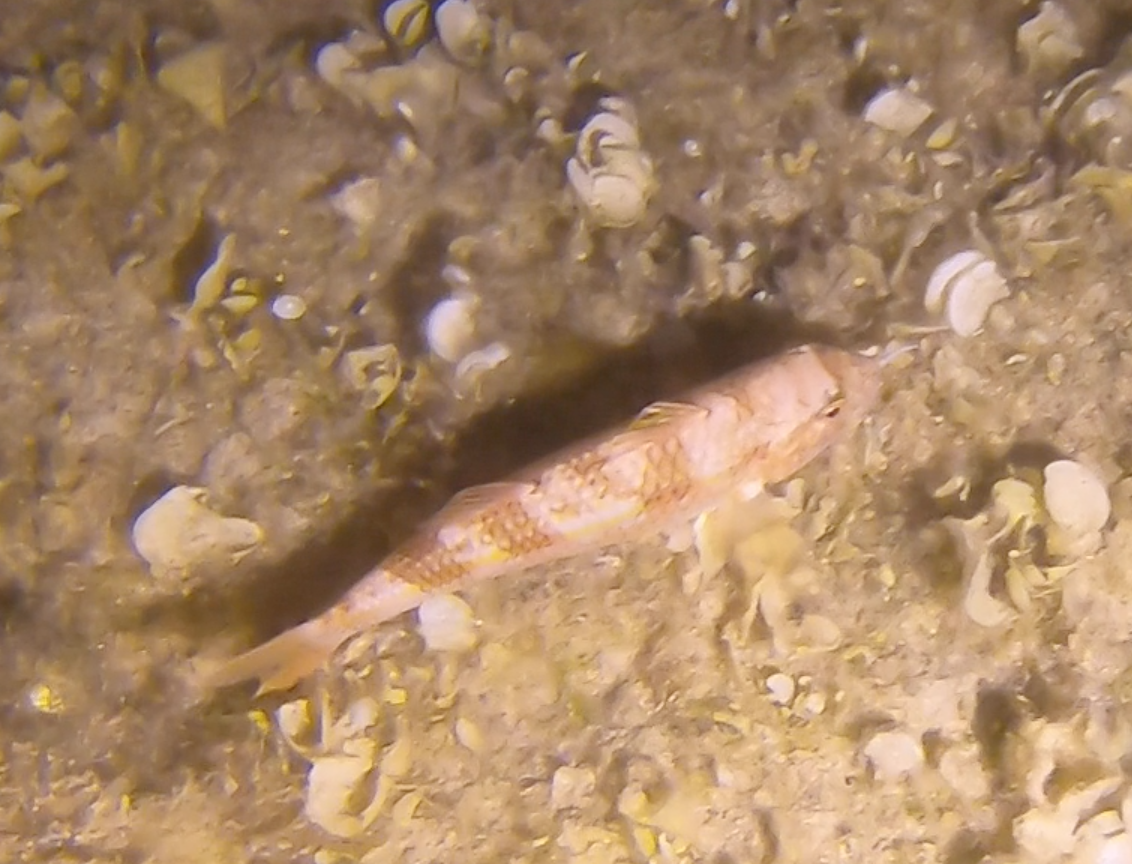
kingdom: Animalia
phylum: Chordata
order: Perciformes
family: Mullidae
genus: Mullus
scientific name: Mullus surmuletus
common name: Red mullet
